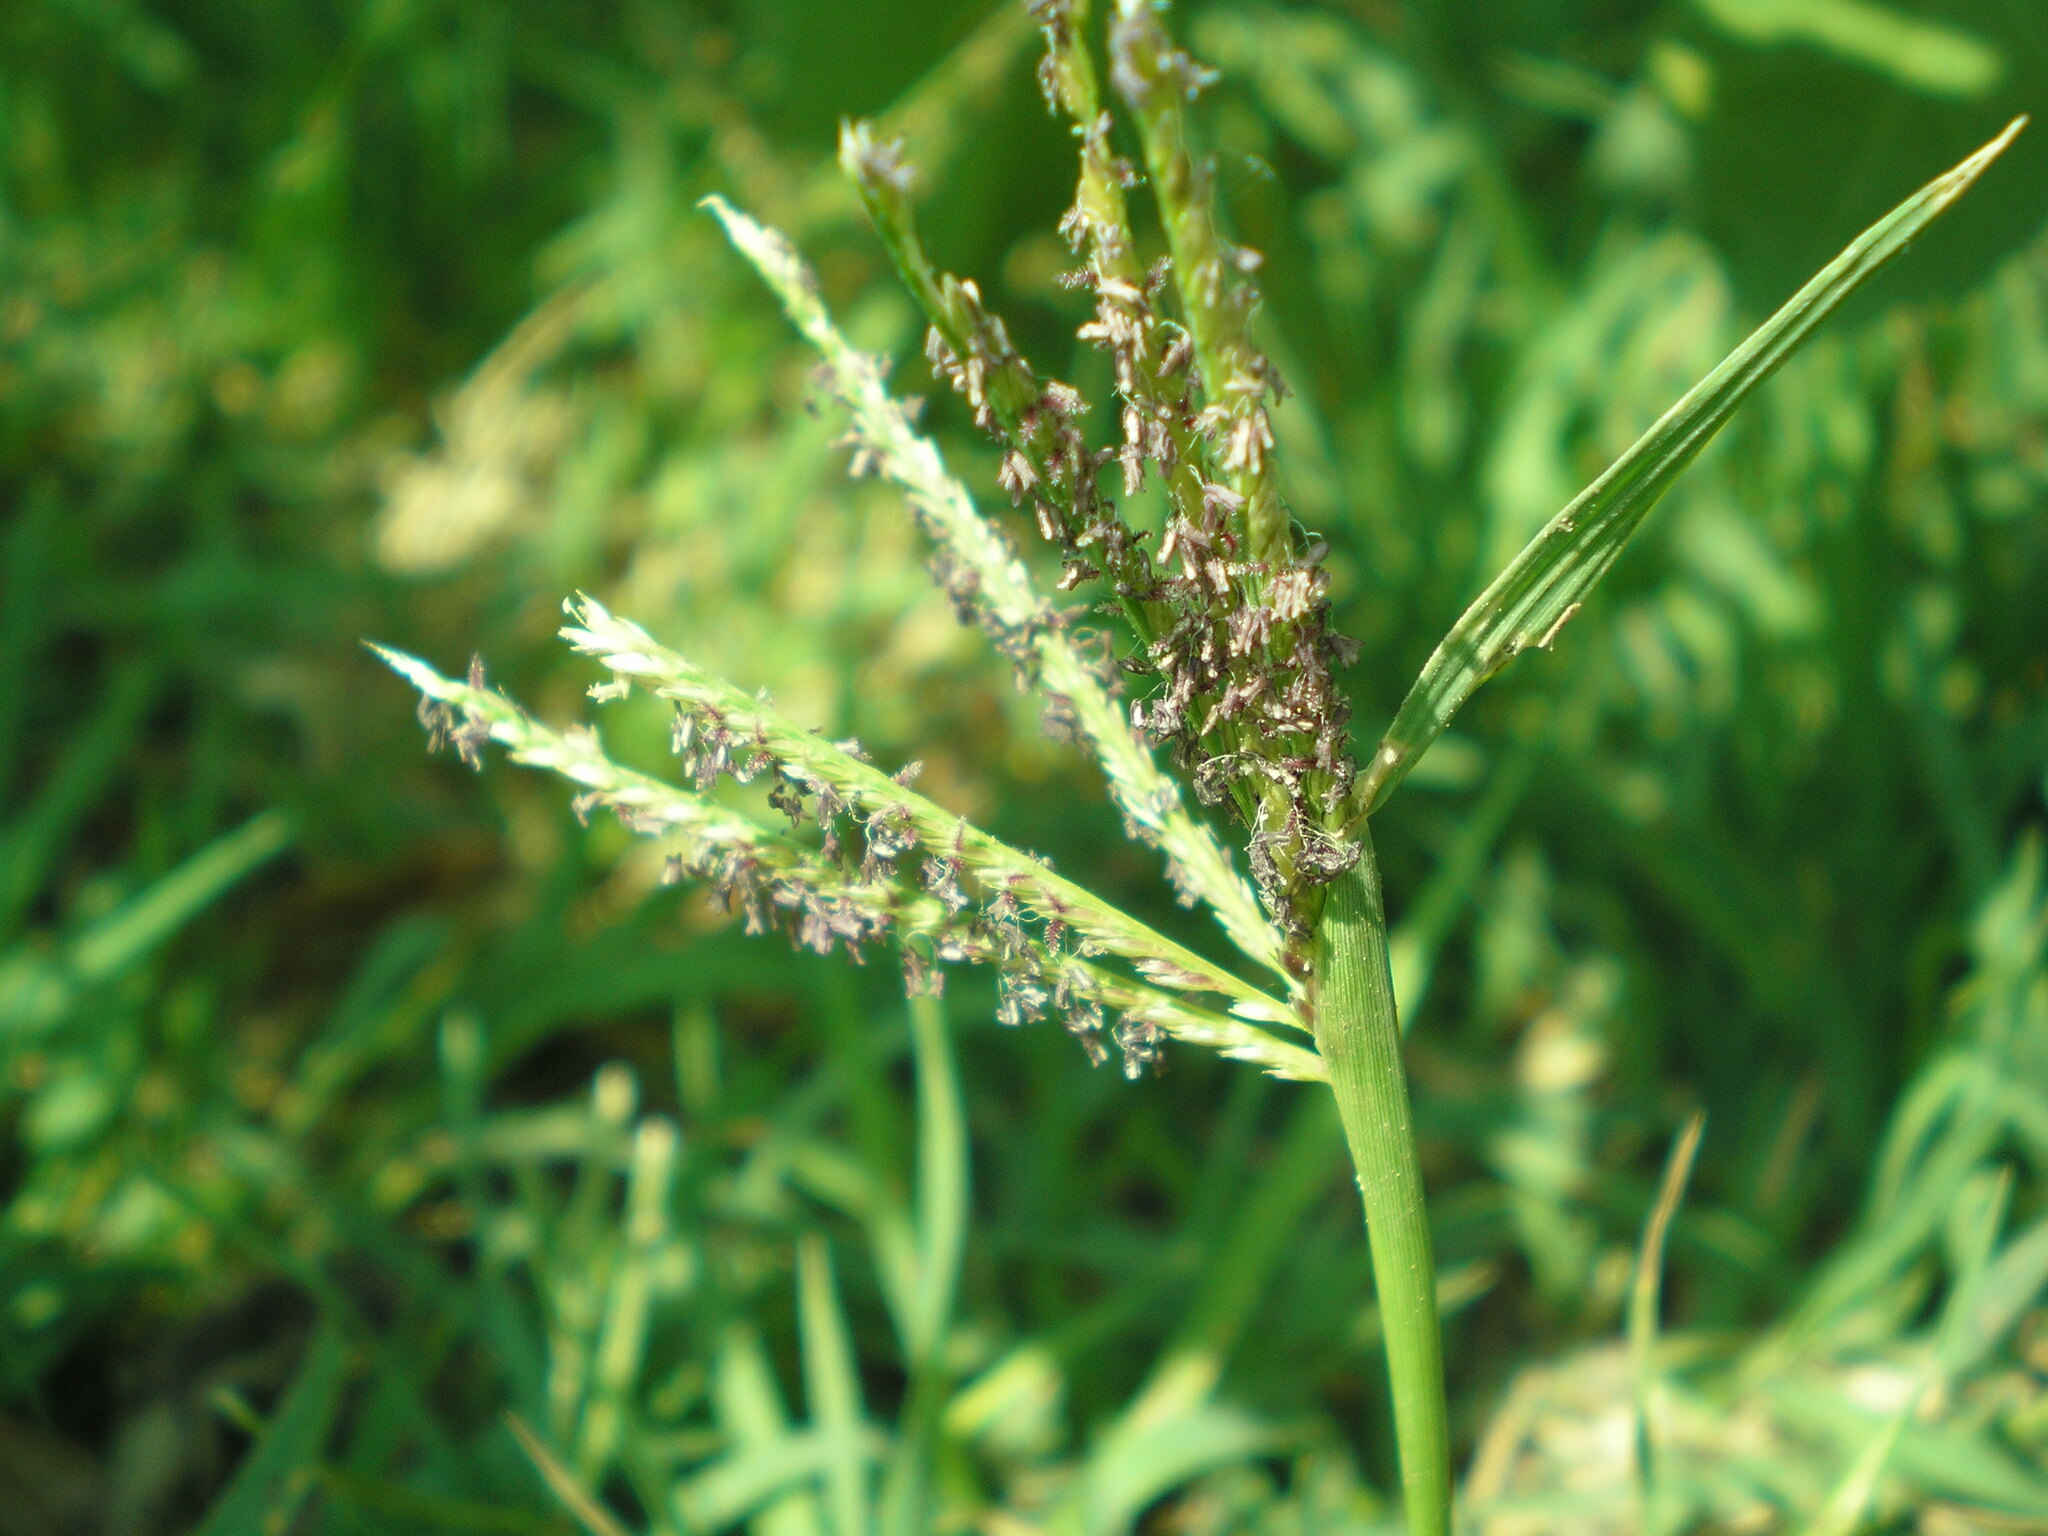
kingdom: Plantae
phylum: Tracheophyta
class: Liliopsida
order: Poales
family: Poaceae
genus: Cynodon
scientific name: Cynodon dactylon
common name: Bermuda grass
